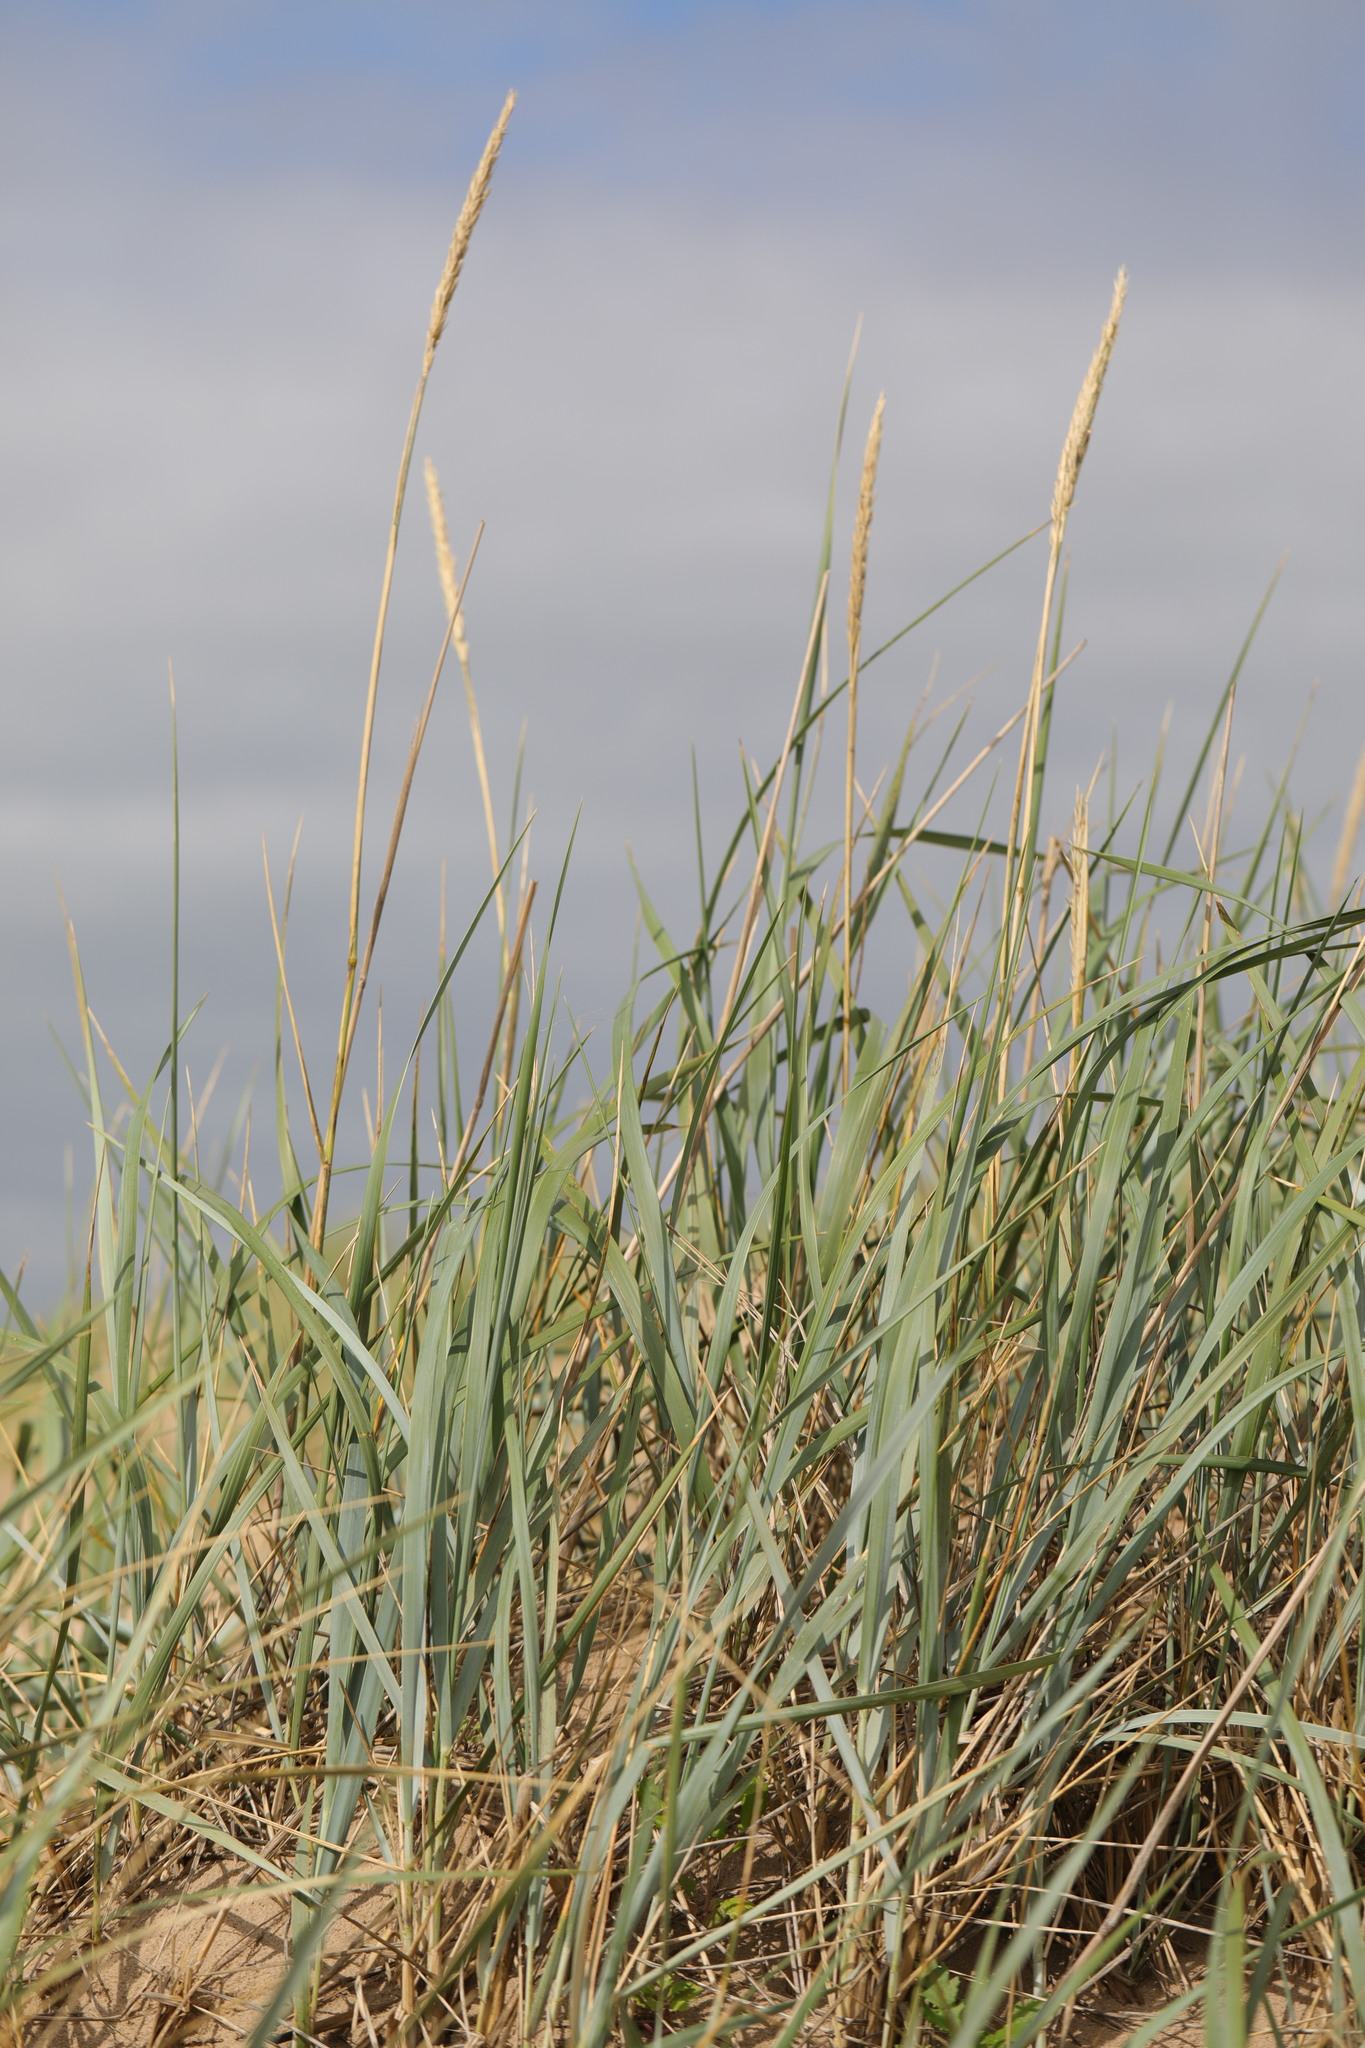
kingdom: Plantae
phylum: Tracheophyta
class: Liliopsida
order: Poales
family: Poaceae
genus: Leymus
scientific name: Leymus arenarius
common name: Lyme-grass
